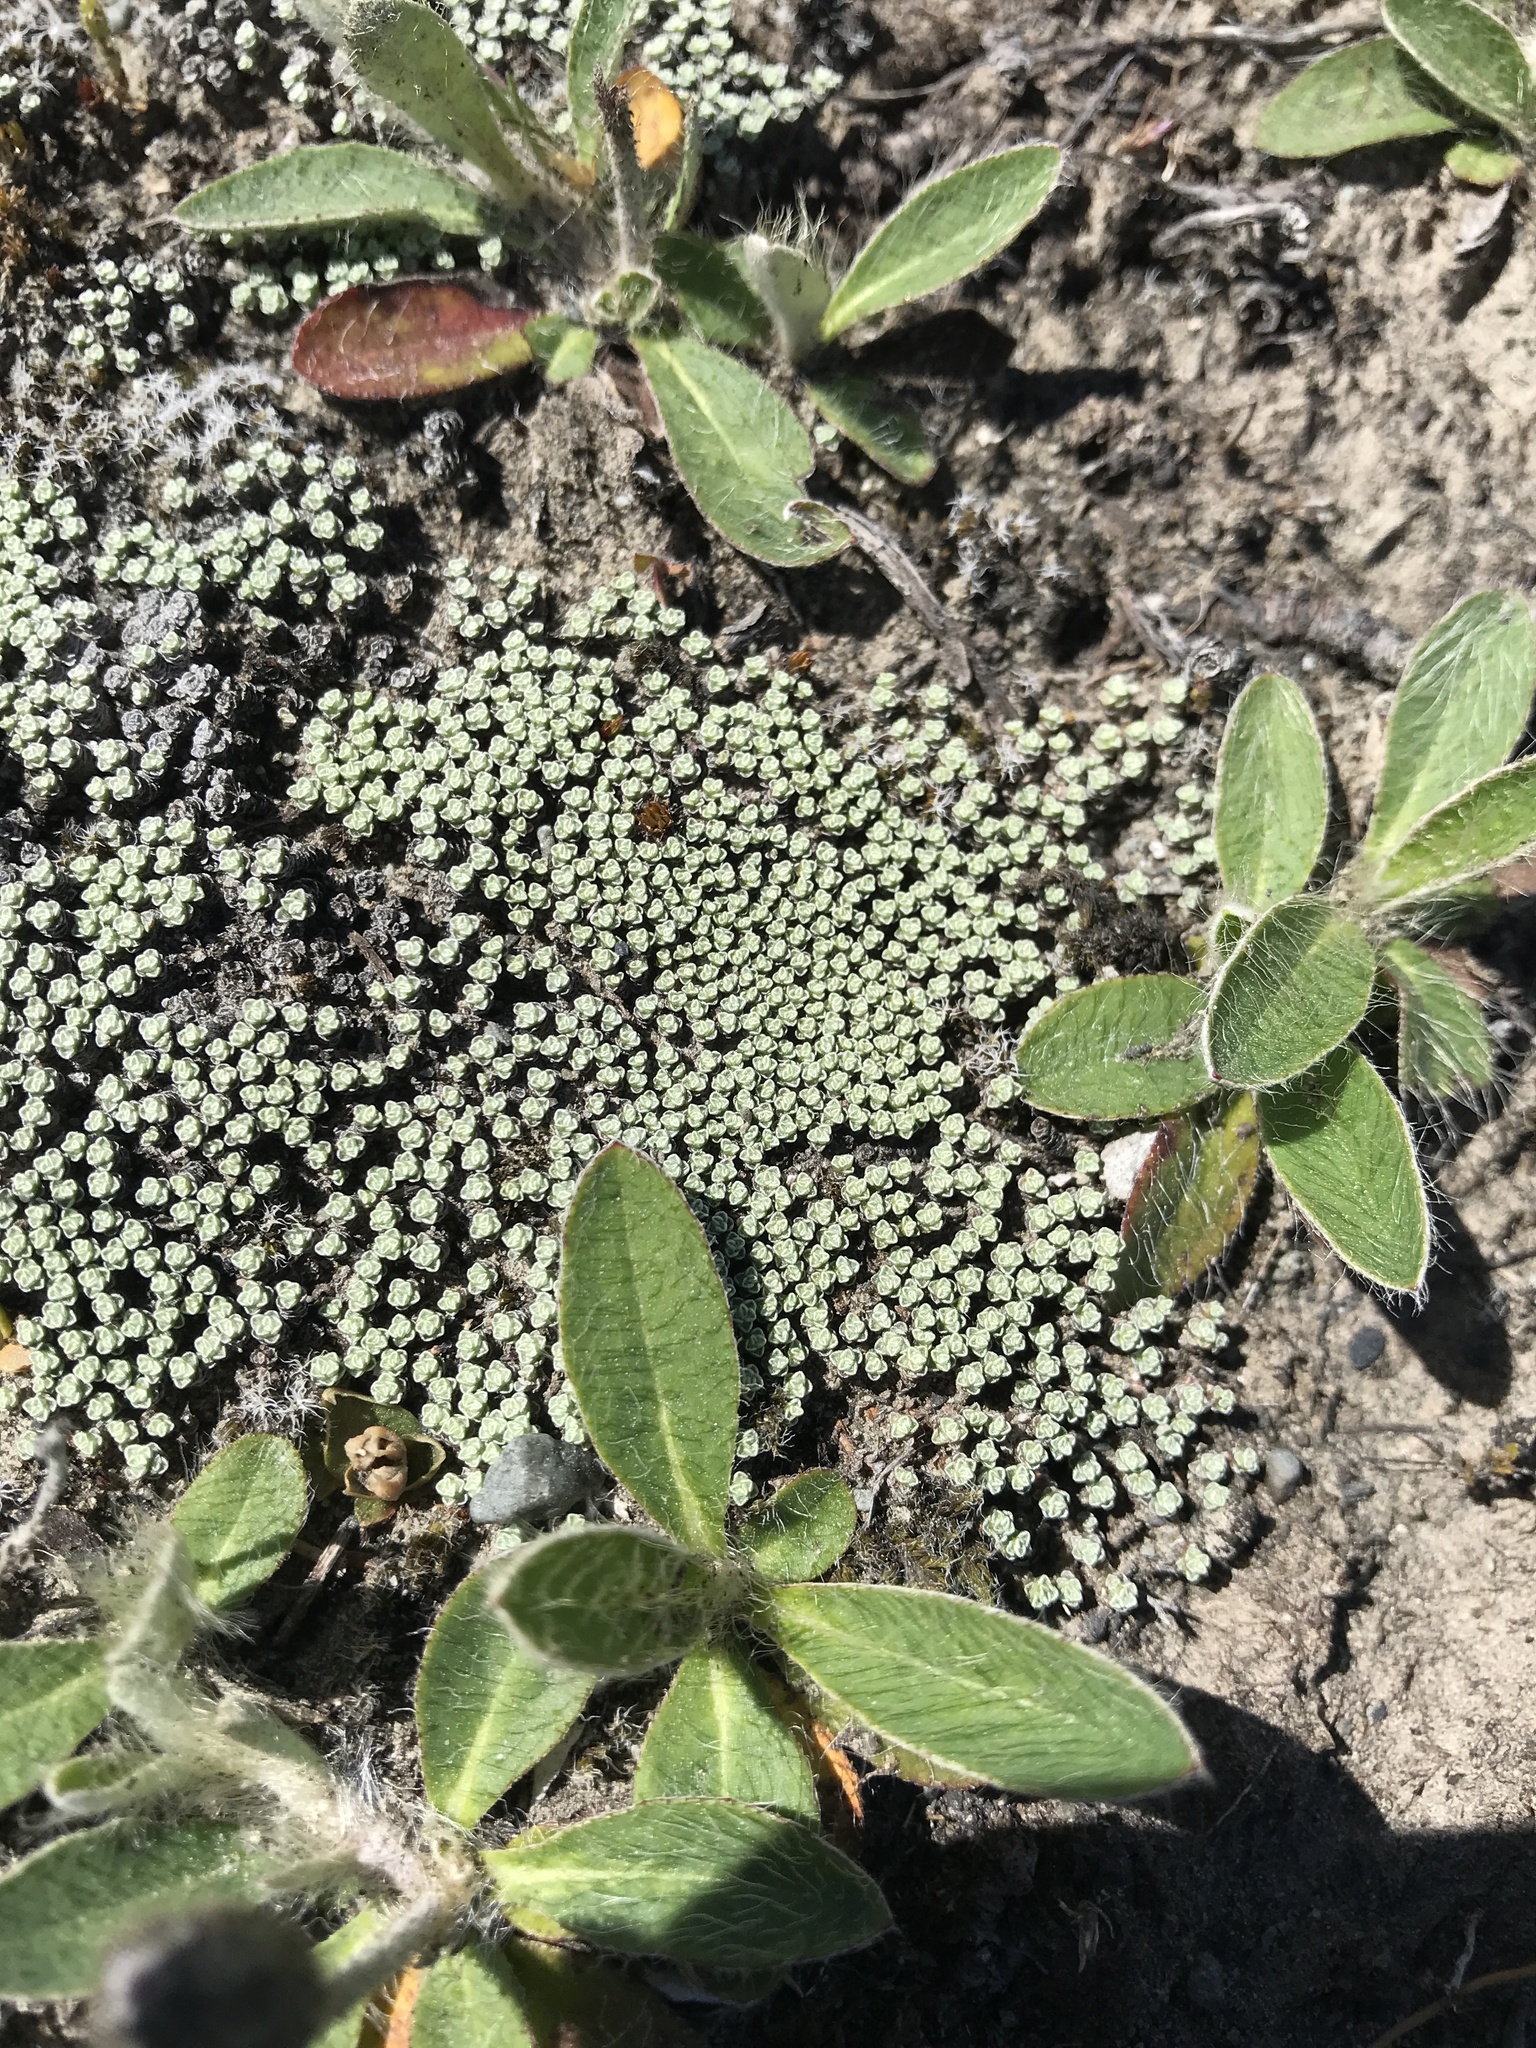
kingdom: Plantae
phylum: Tracheophyta
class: Magnoliopsida
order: Asterales
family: Asteraceae
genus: Raoulia
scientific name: Raoulia australis
